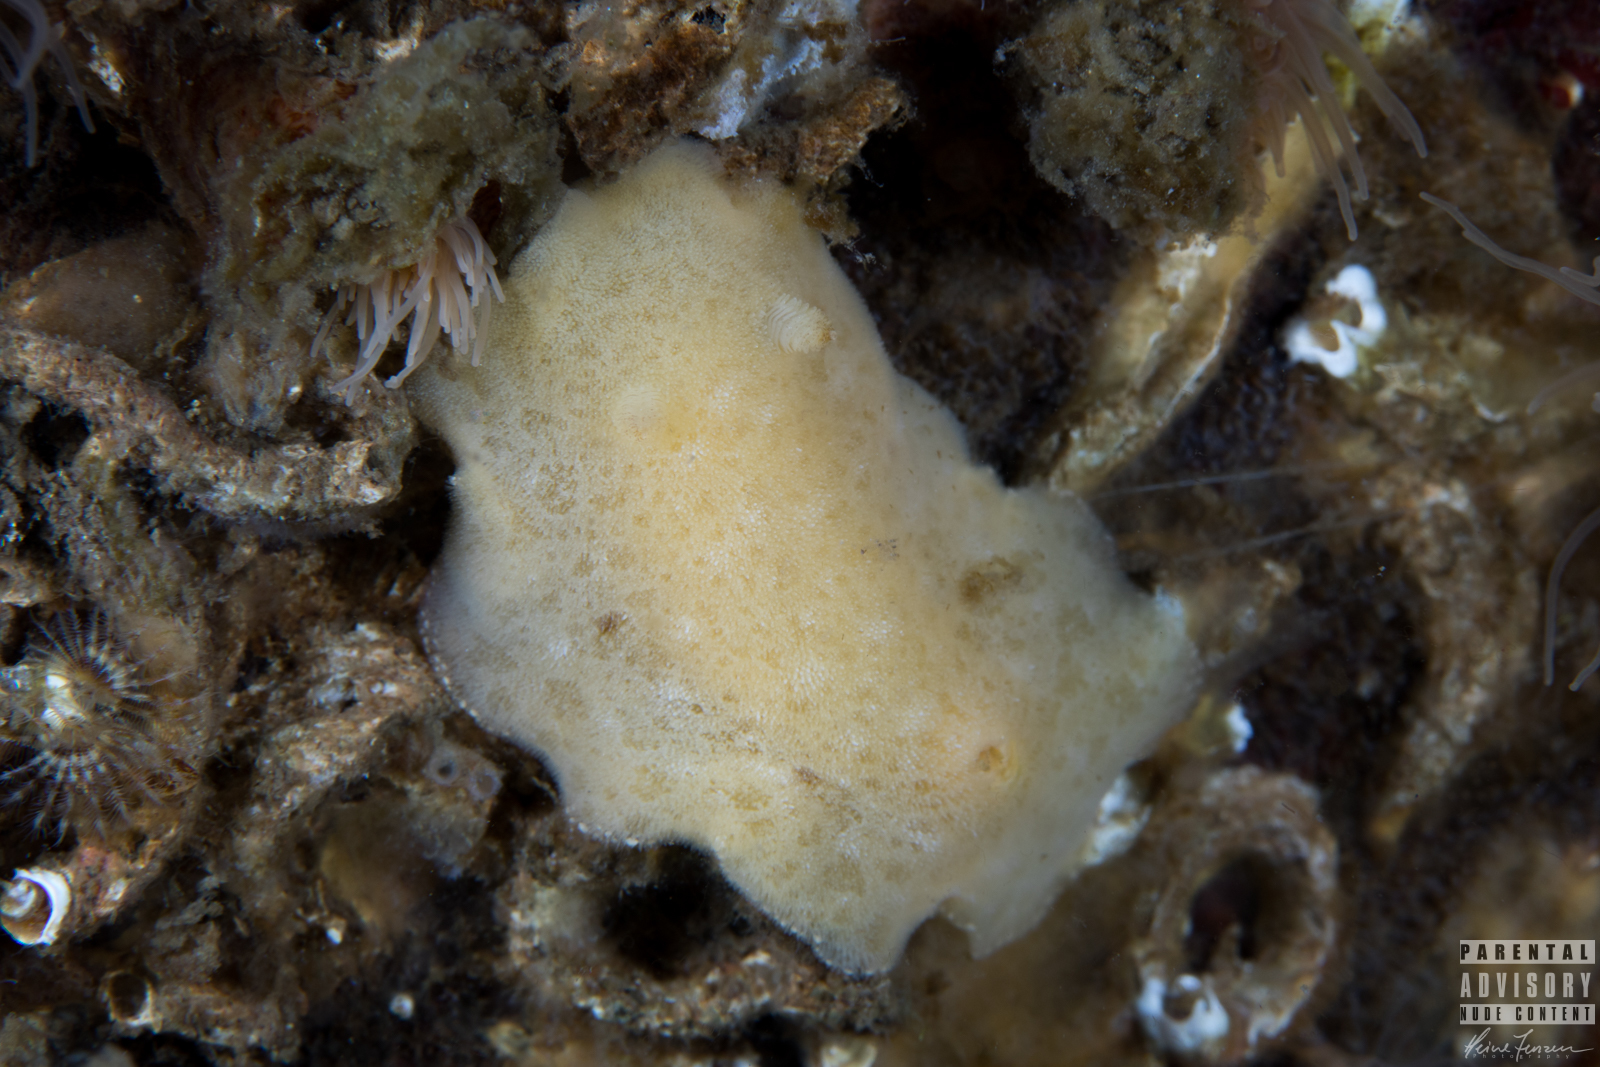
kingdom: Animalia
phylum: Mollusca
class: Gastropoda
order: Nudibranchia
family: Discodorididae
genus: Jorunna
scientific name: Jorunna tomentosa
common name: Grey sea slug
